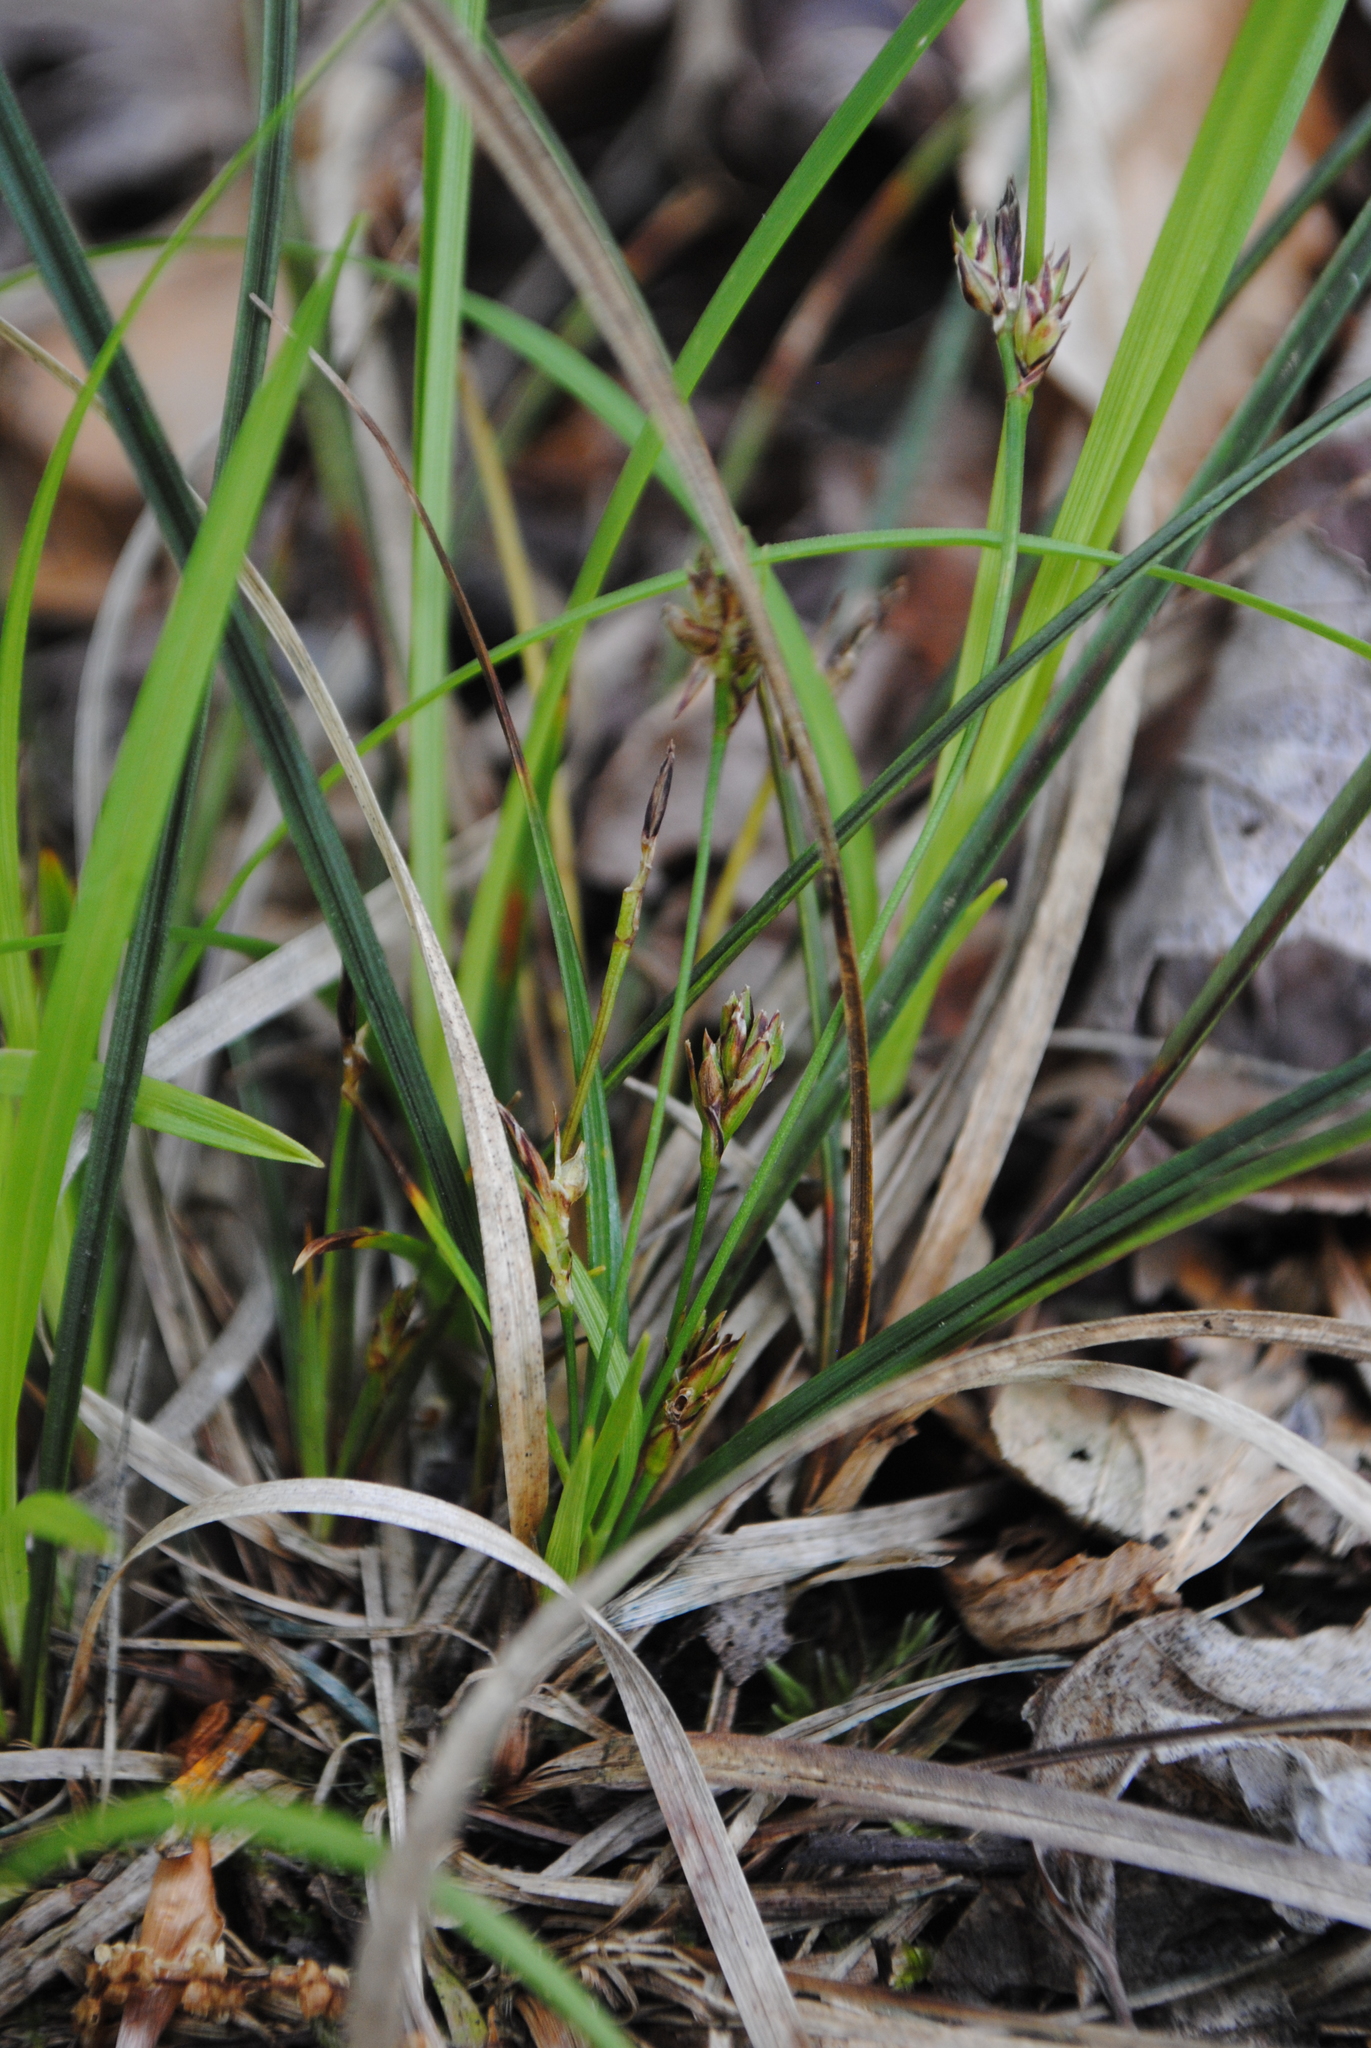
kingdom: Plantae
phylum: Tracheophyta
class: Liliopsida
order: Poales
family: Cyperaceae
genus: Carex
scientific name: Carex nigromarginata
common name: Black-edged sedge
